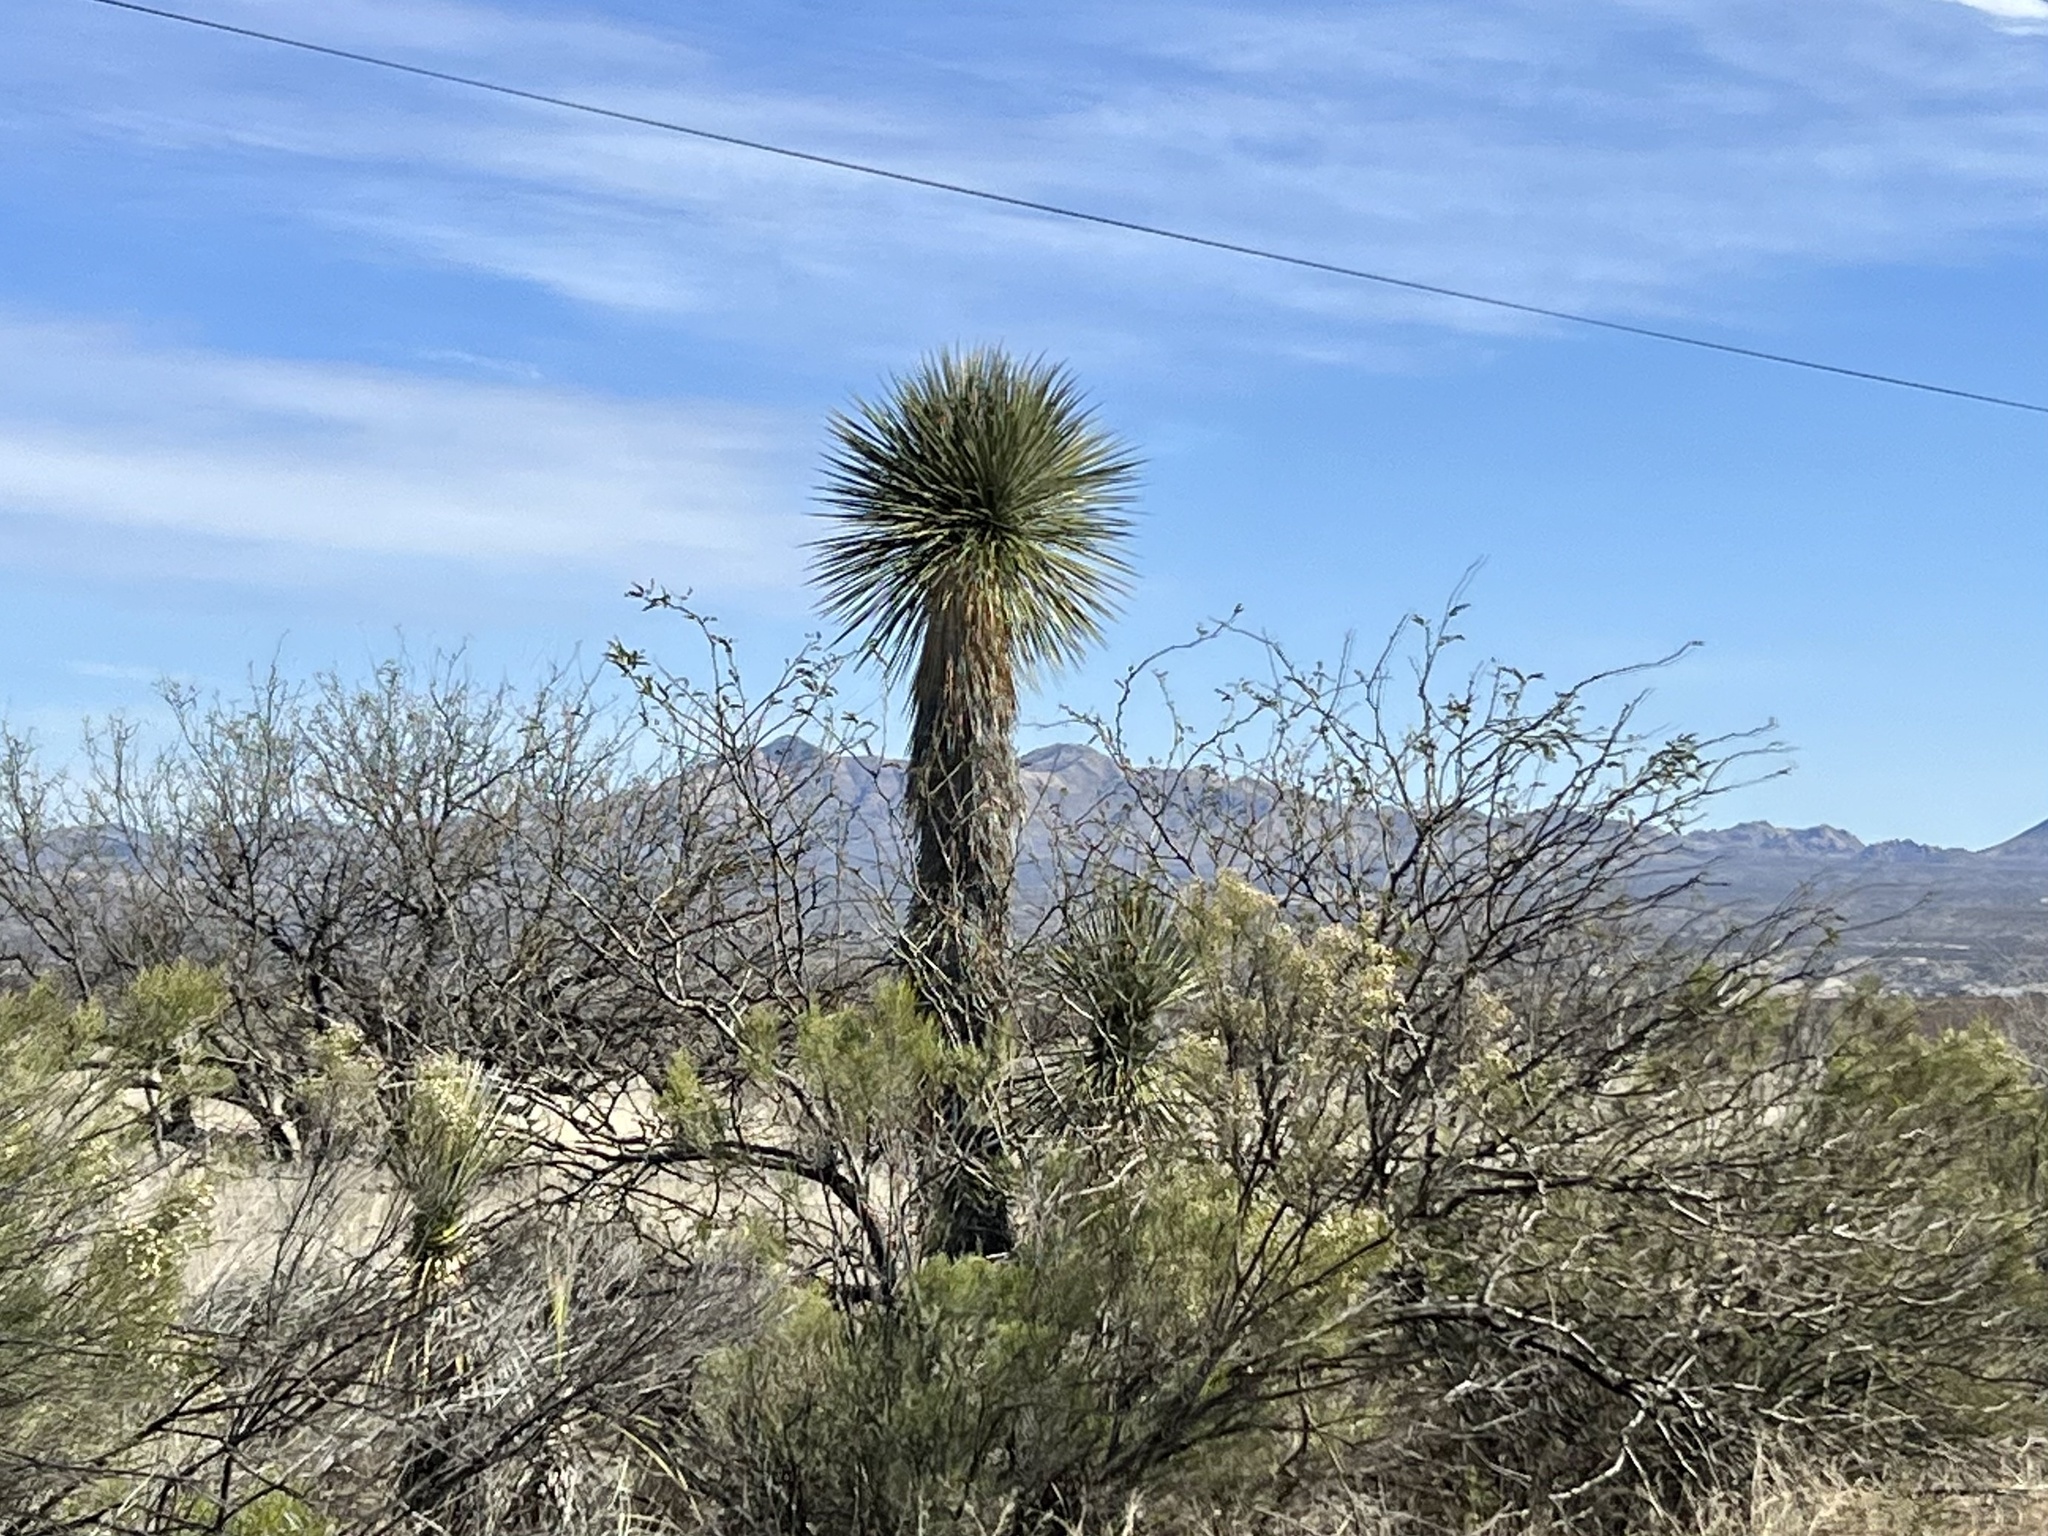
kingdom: Plantae
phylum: Tracheophyta
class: Liliopsida
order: Asparagales
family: Asparagaceae
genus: Yucca
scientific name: Yucca elata
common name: Palmella
